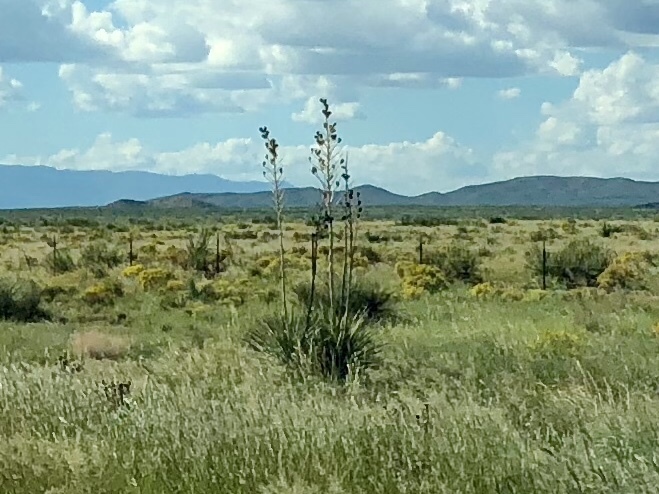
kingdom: Plantae
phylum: Tracheophyta
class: Liliopsida
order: Asparagales
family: Asparagaceae
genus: Yucca
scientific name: Yucca elata
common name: Palmella
